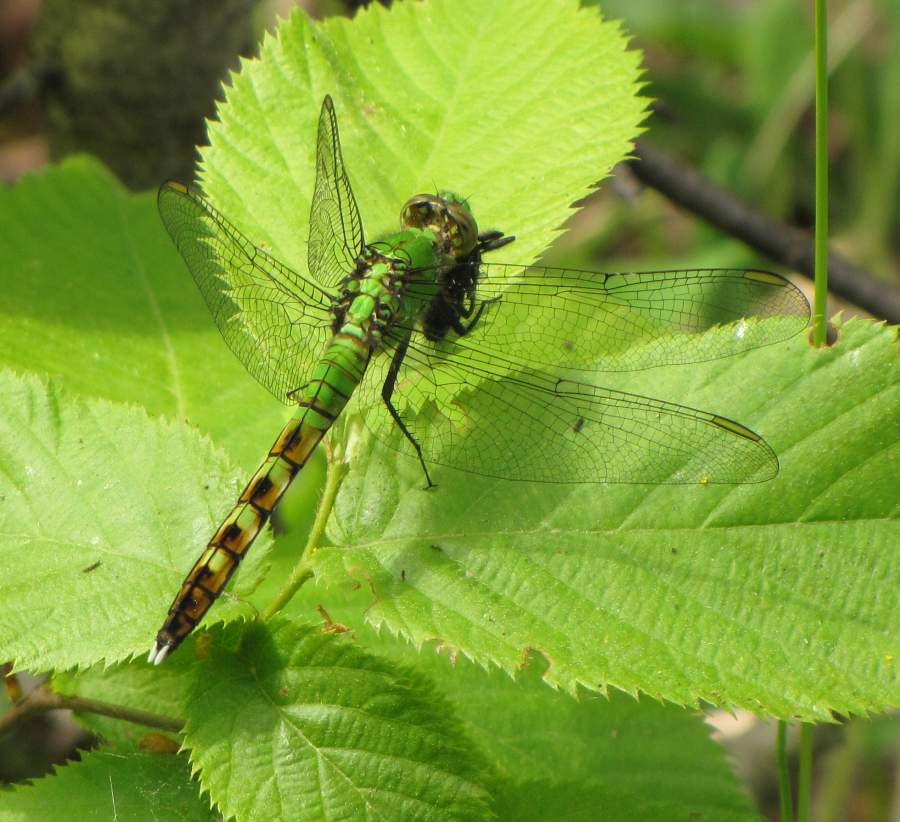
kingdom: Animalia
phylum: Arthropoda
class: Insecta
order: Odonata
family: Libellulidae
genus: Erythemis
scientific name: Erythemis simplicicollis
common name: Eastern pondhawk
